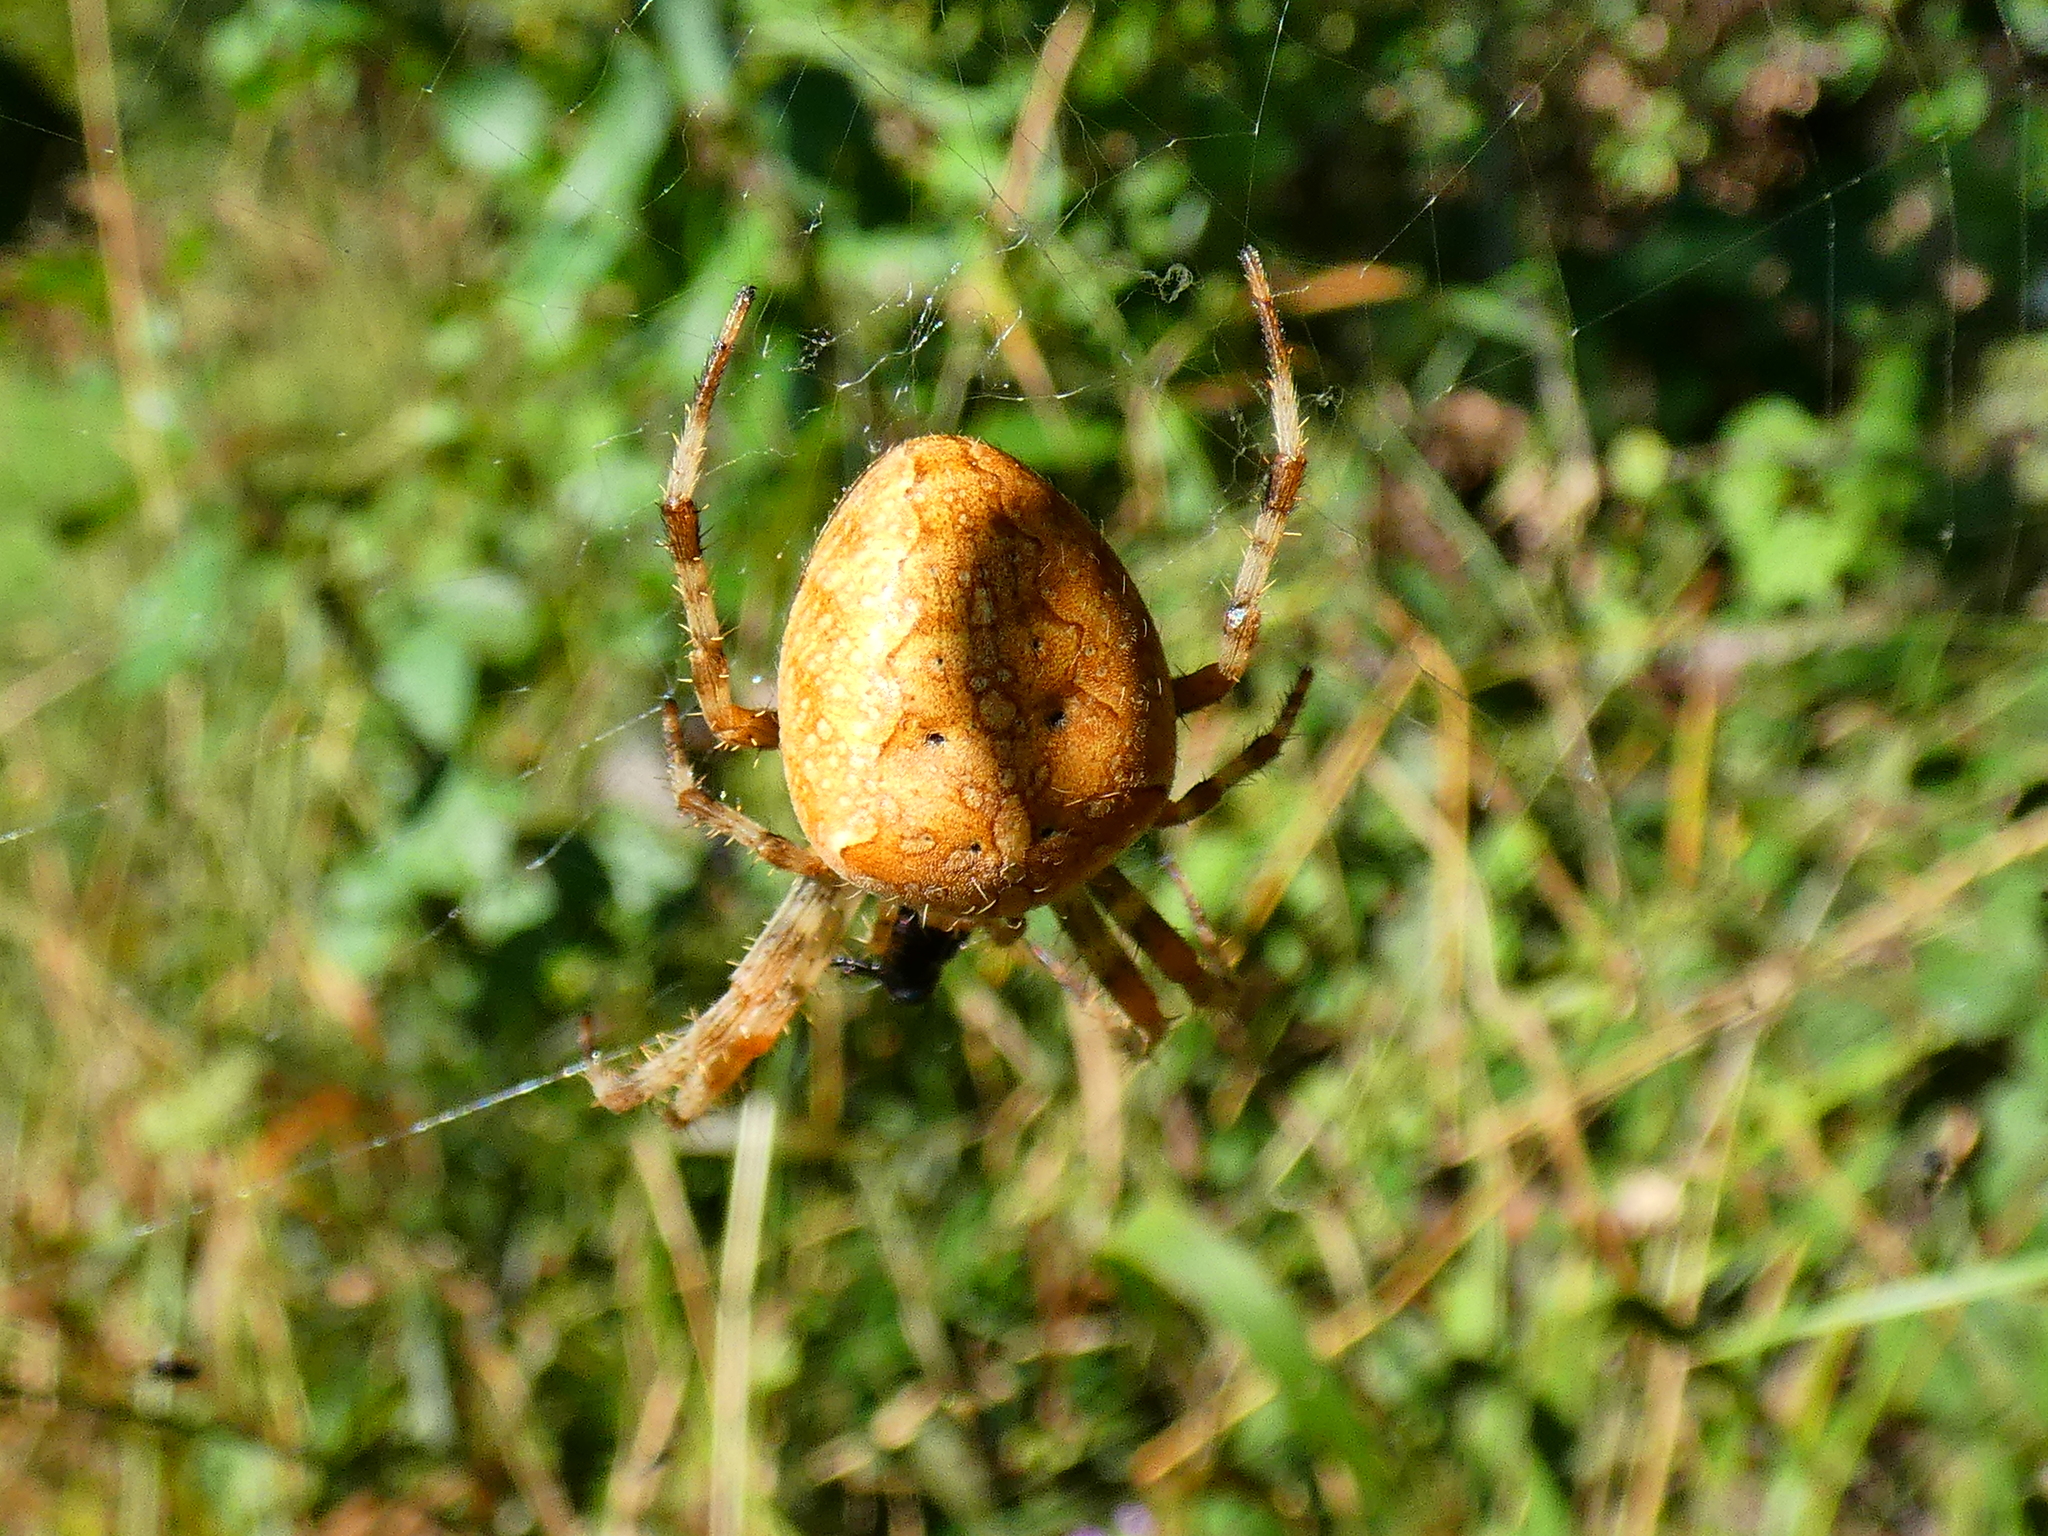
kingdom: Animalia
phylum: Arthropoda
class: Arachnida
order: Araneae
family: Araneidae
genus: Araneus
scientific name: Araneus diadematus
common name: Cross orbweaver
